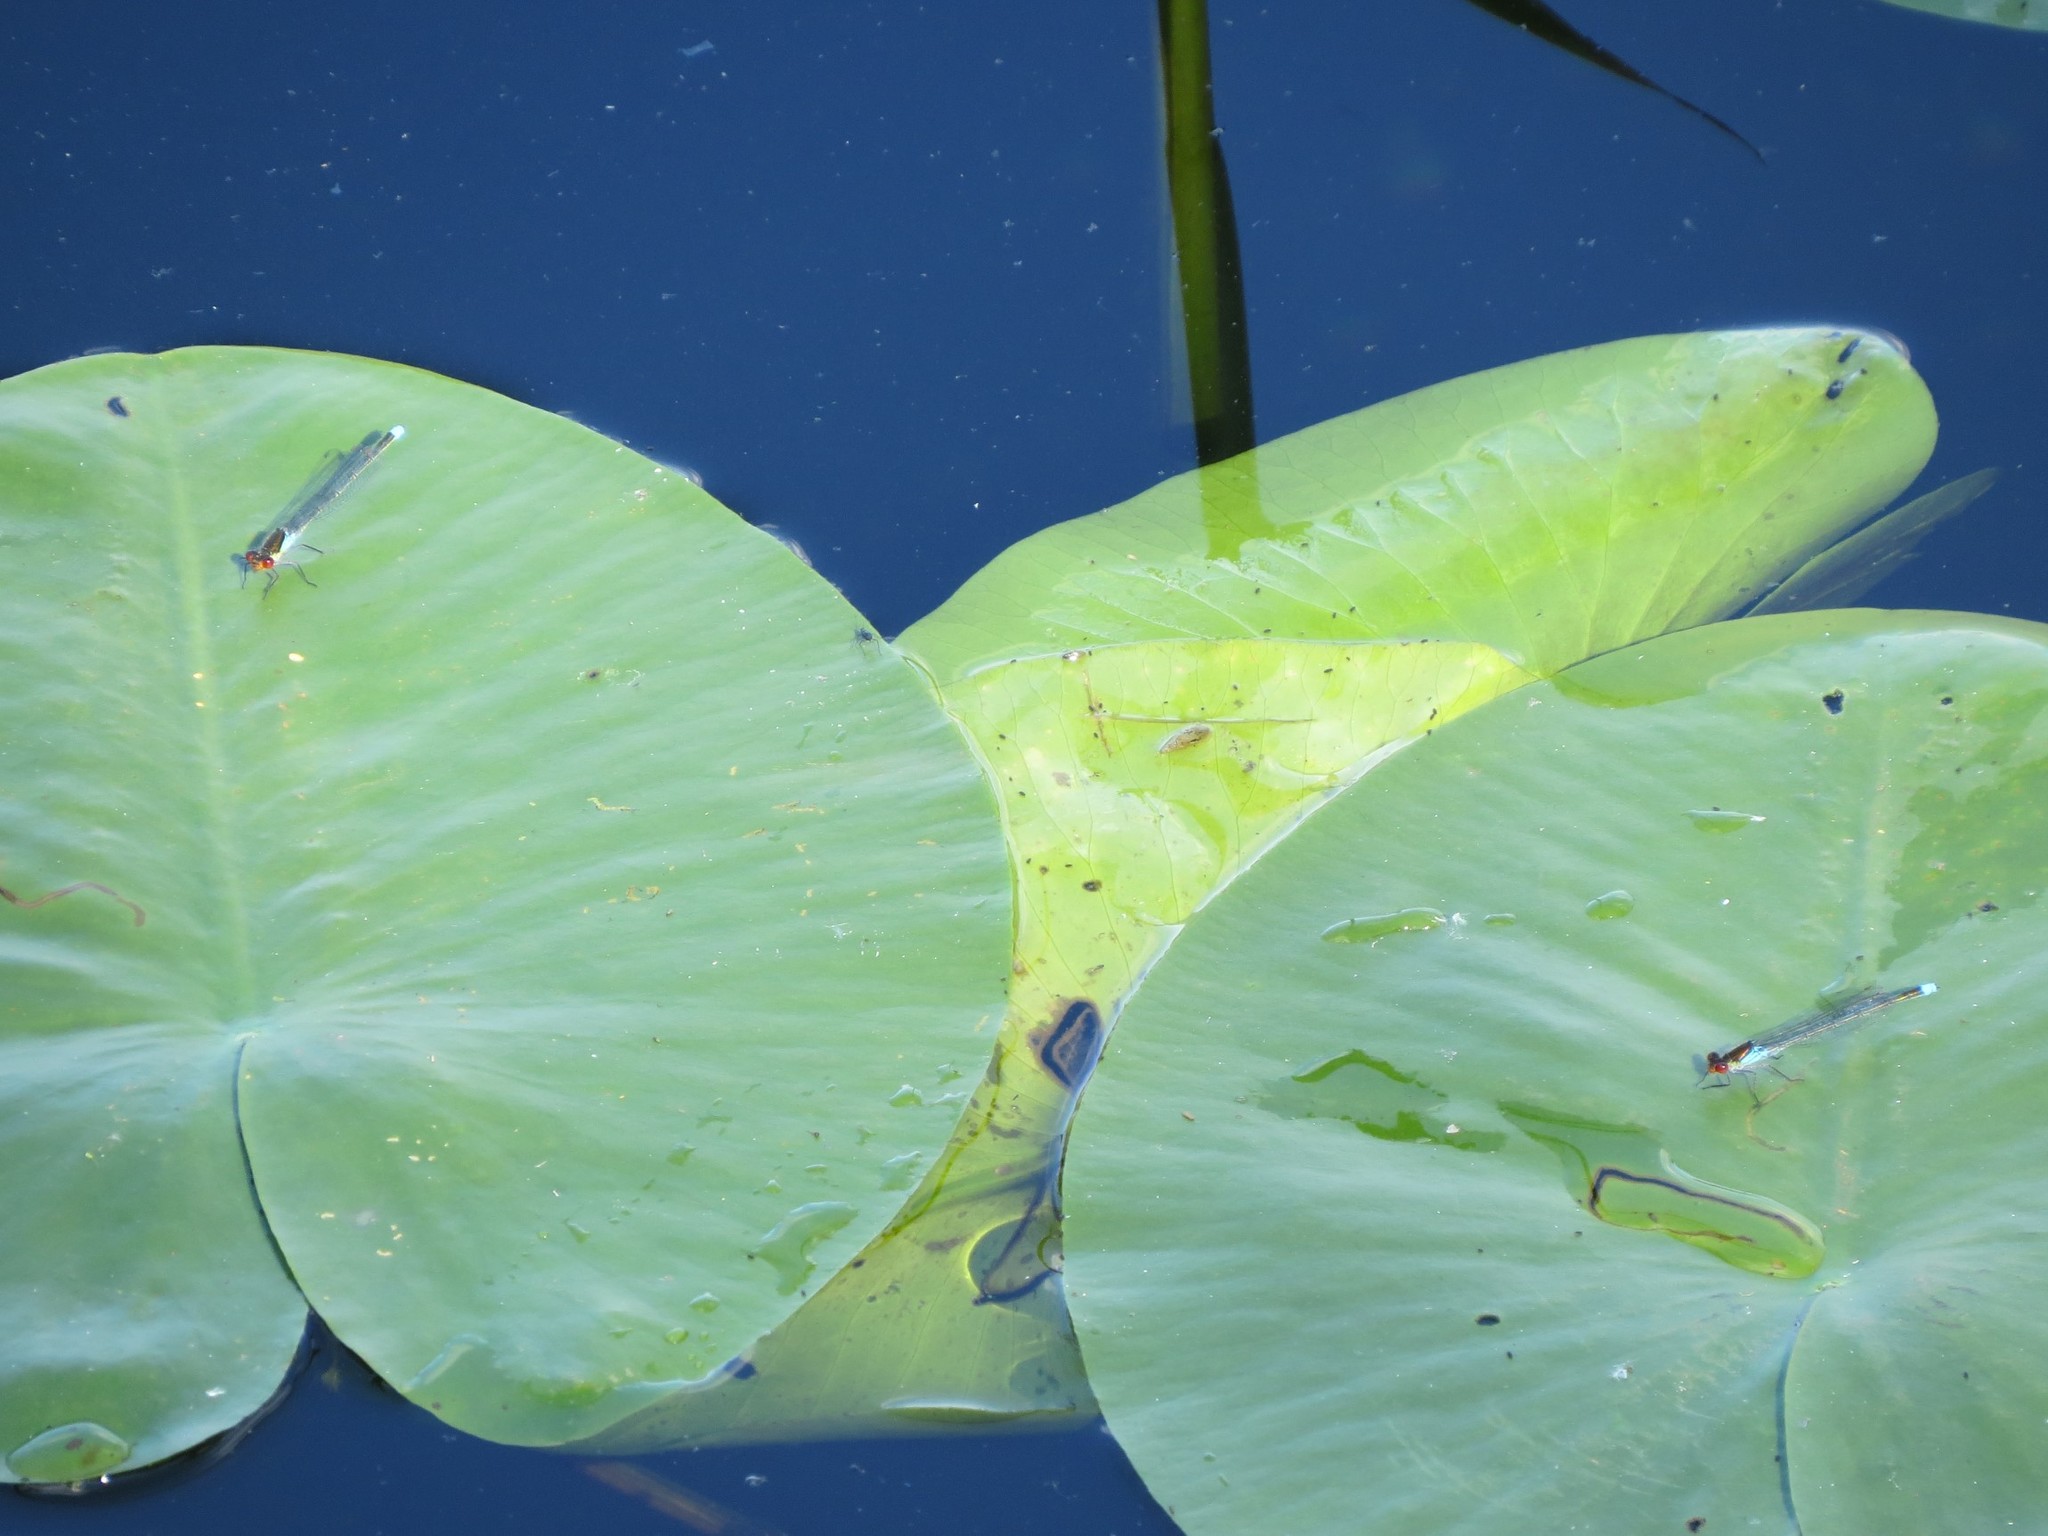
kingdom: Animalia
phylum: Arthropoda
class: Insecta
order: Odonata
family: Coenagrionidae
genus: Erythromma
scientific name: Erythromma najas
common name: Red-eyed damselfly
